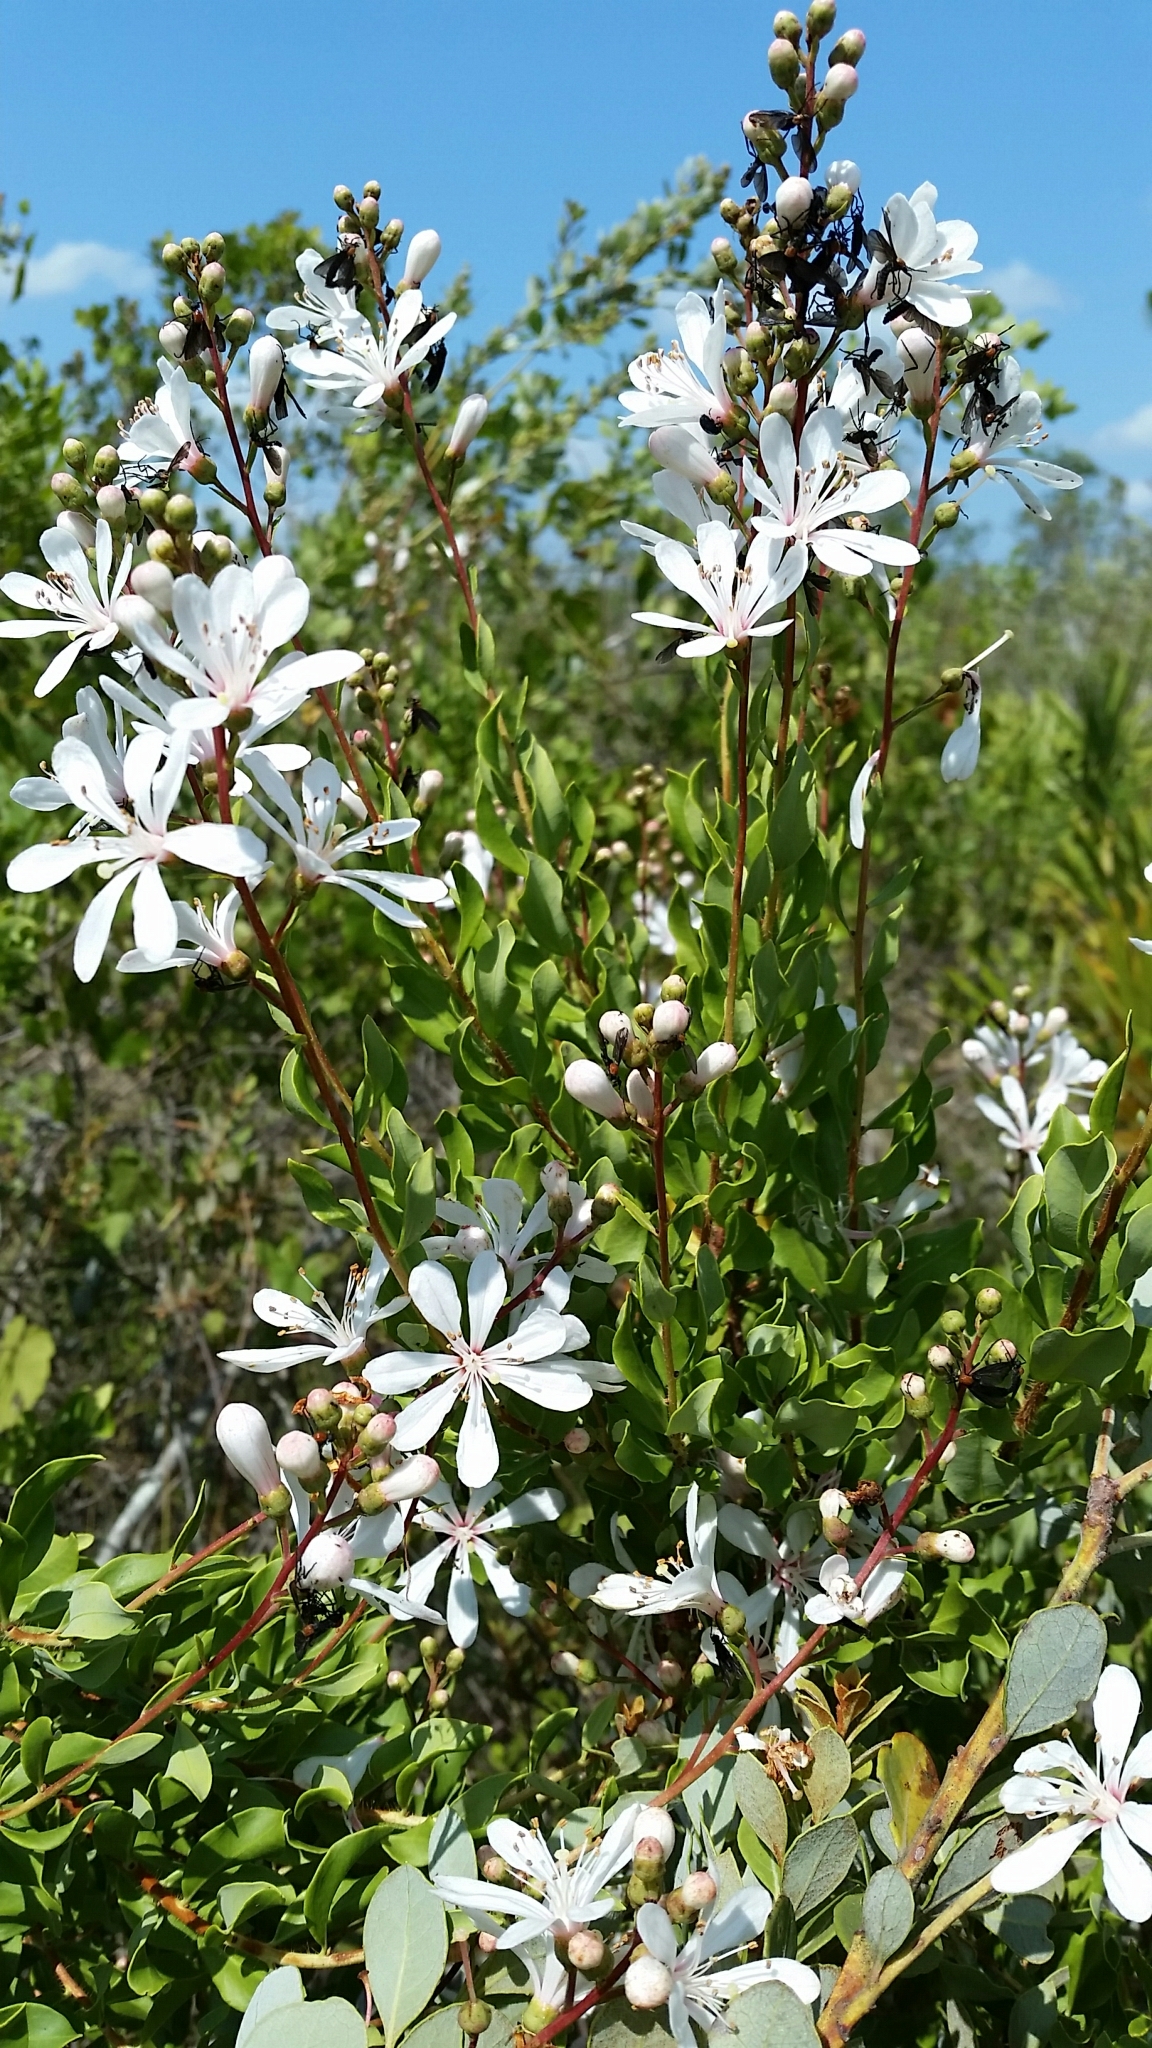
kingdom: Plantae
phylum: Tracheophyta
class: Magnoliopsida
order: Ericales
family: Ericaceae
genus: Bejaria
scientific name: Bejaria racemosa
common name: Tarflower
